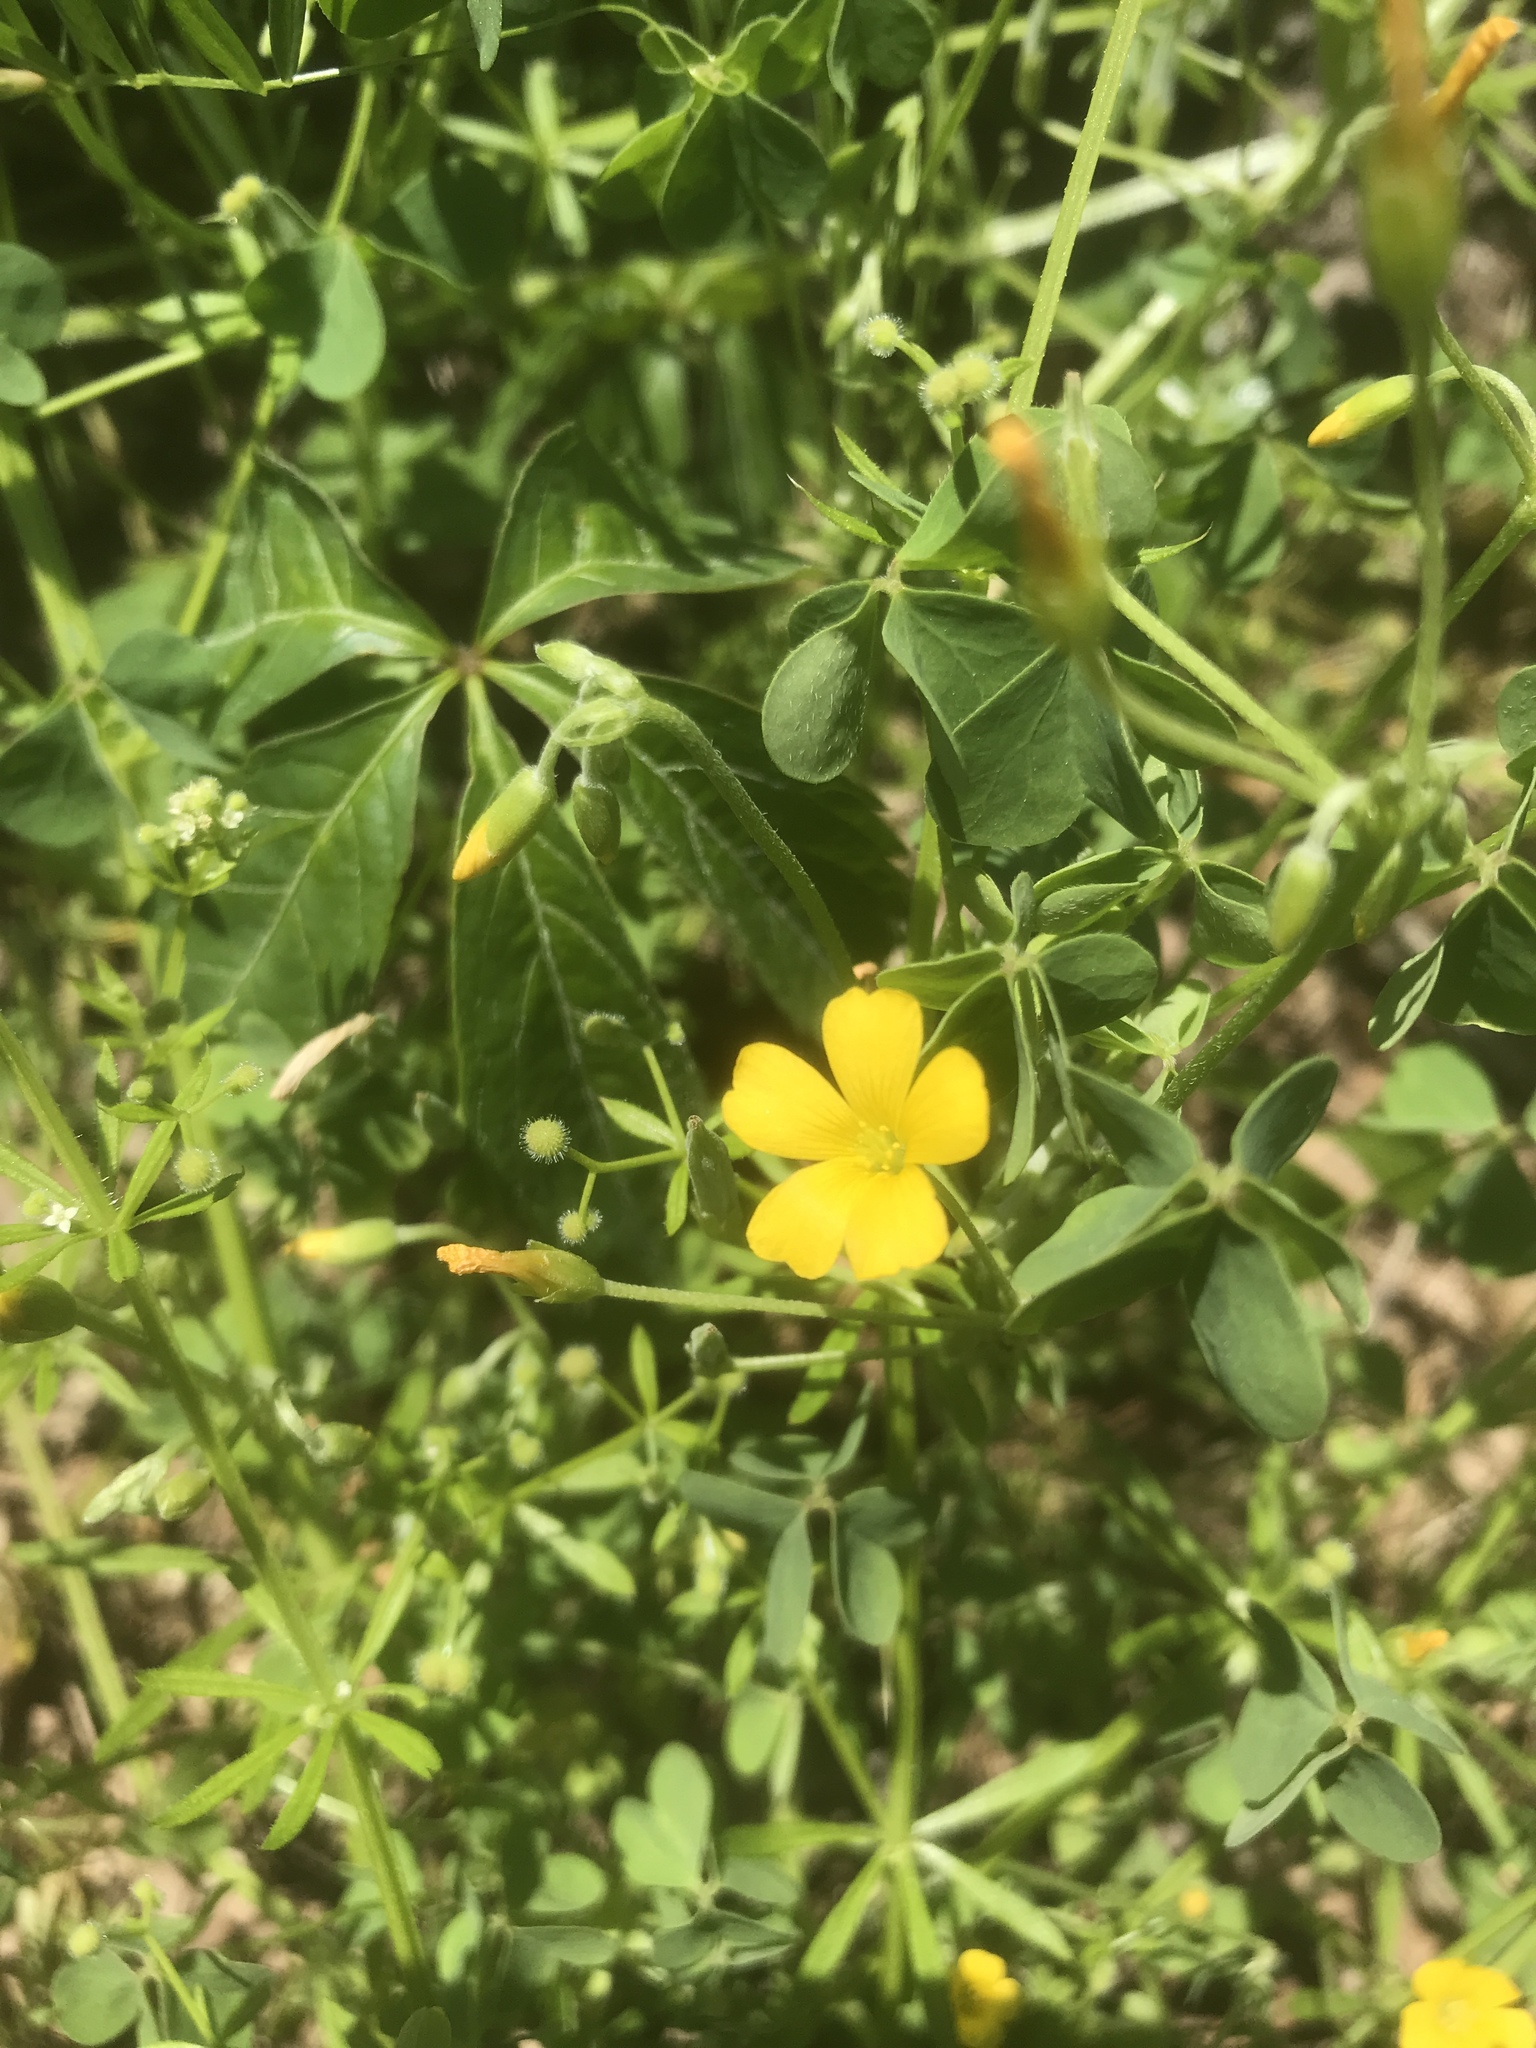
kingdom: Plantae
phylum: Tracheophyta
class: Magnoliopsida
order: Oxalidales
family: Oxalidaceae
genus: Oxalis
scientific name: Oxalis dillenii
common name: Sussex yellow-sorrel
